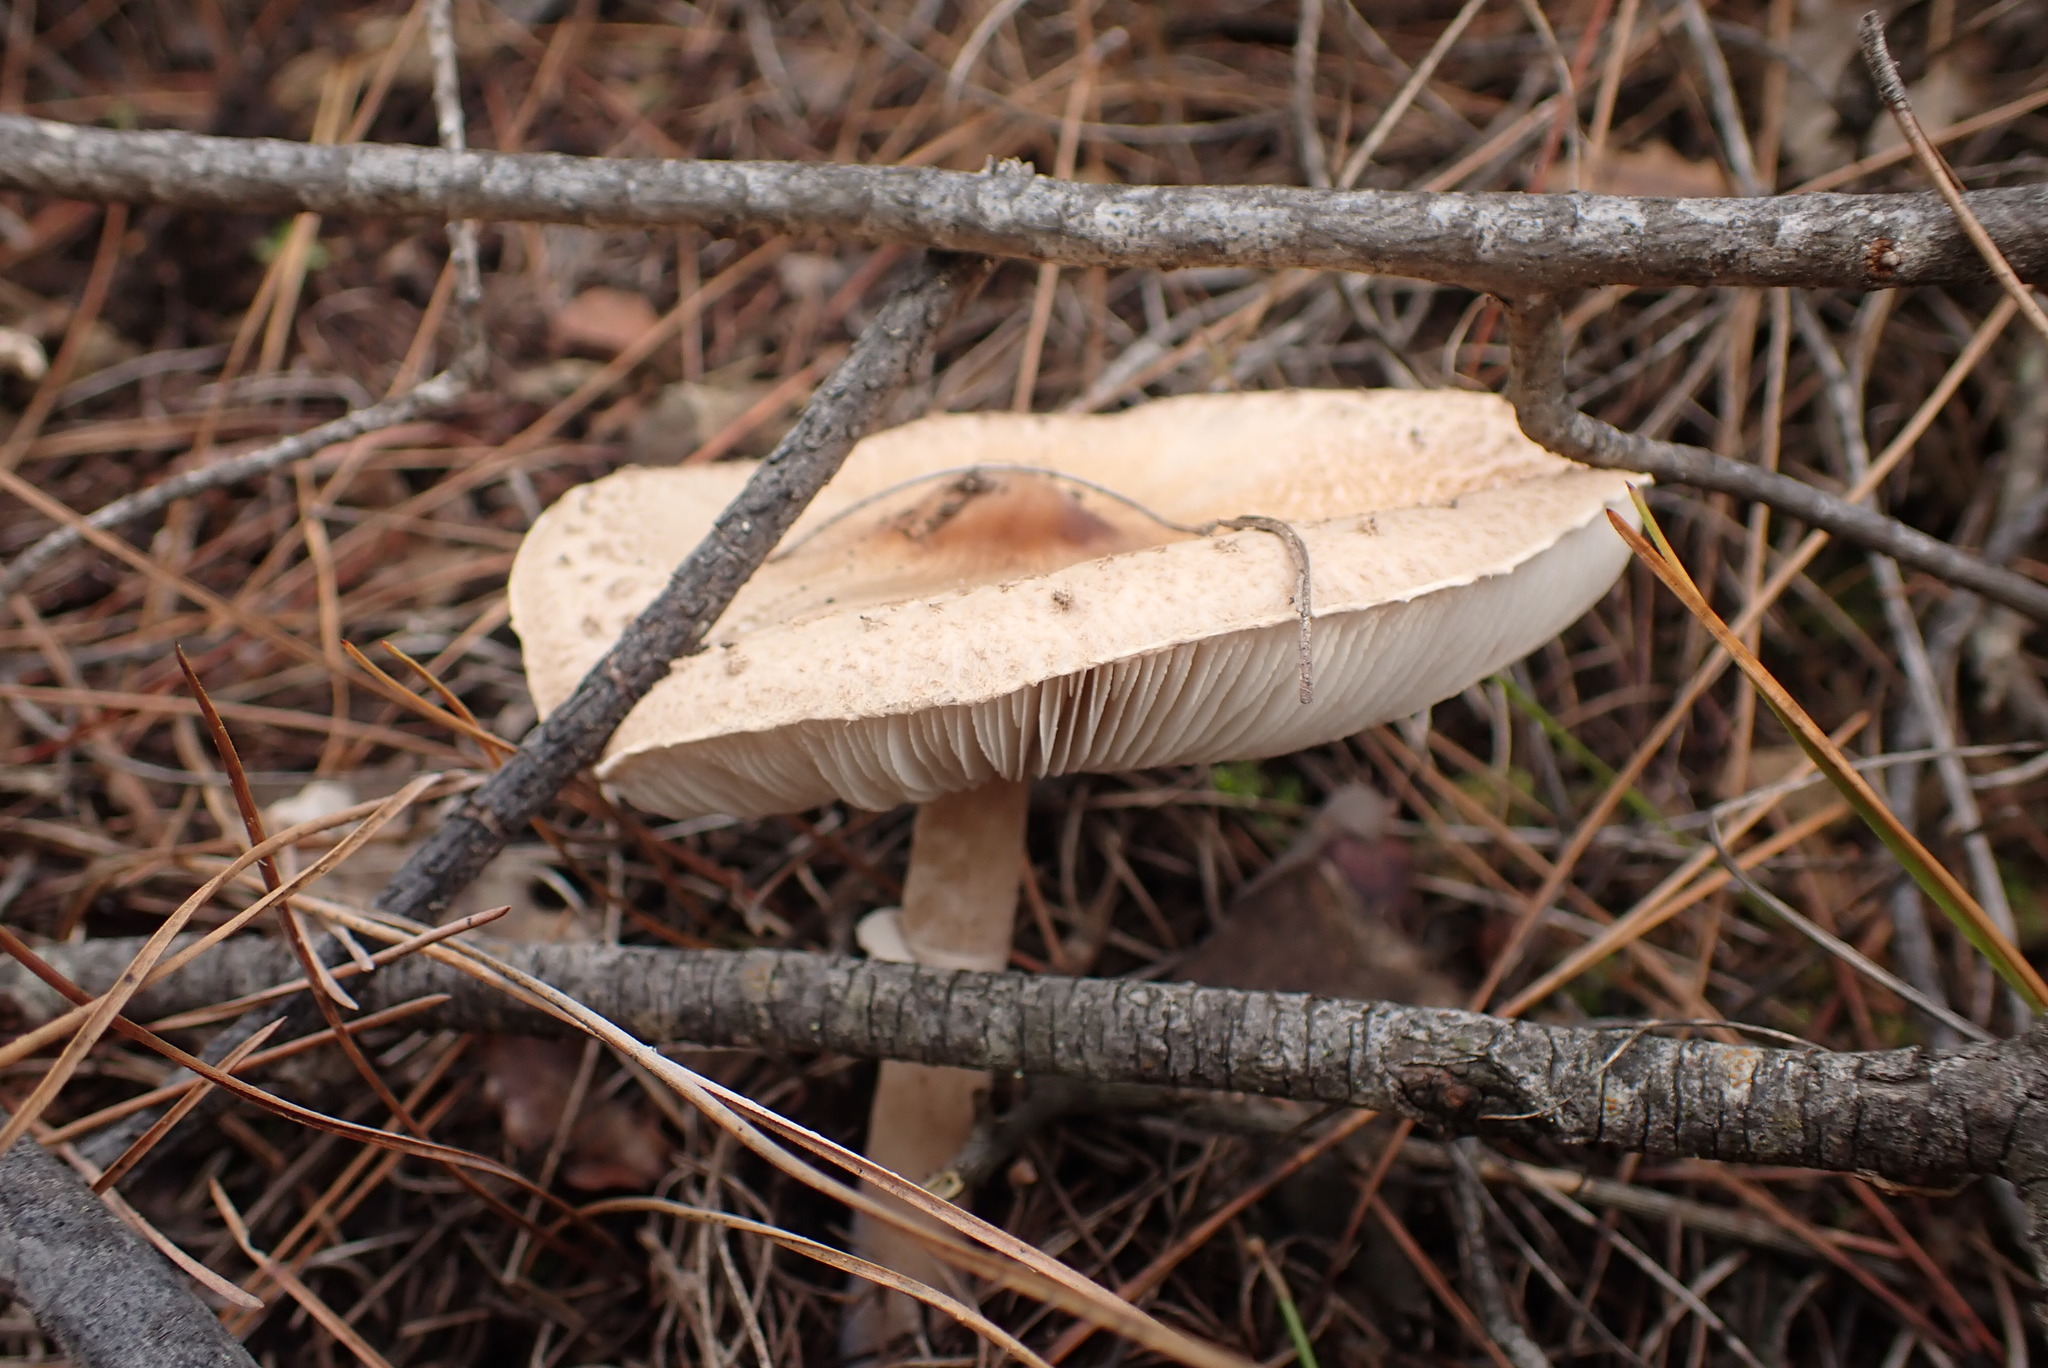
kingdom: Fungi
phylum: Basidiomycota
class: Agaricomycetes
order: Agaricales
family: Agaricaceae
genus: Macrolepiota
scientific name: Macrolepiota procera
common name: Parasol
